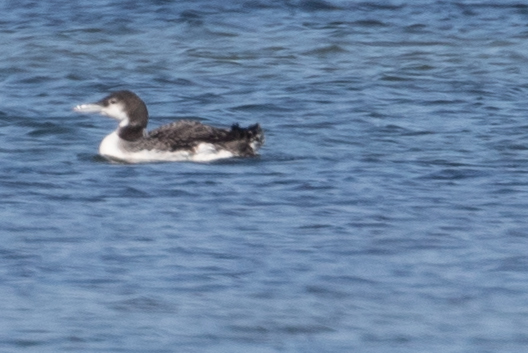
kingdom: Animalia
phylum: Chordata
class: Aves
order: Gaviiformes
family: Gaviidae
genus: Gavia
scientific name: Gavia immer
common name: Common loon
